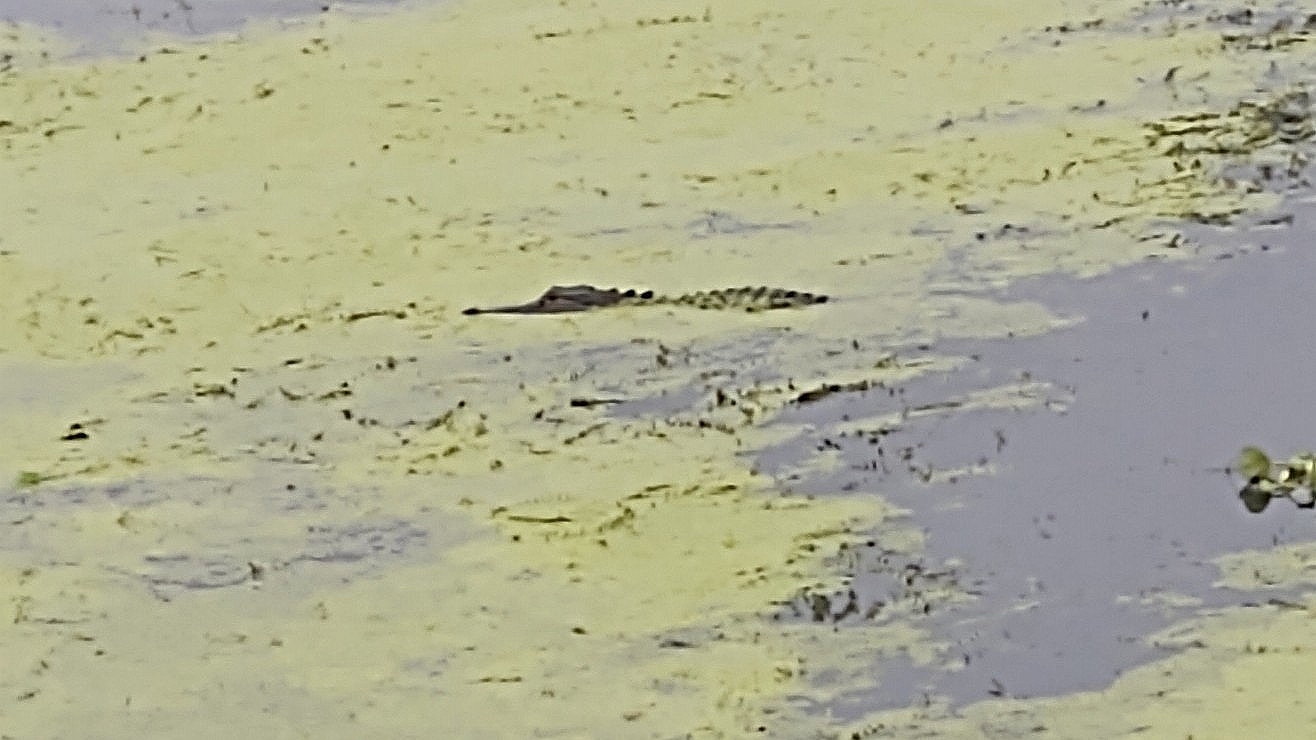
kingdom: Animalia
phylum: Chordata
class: Crocodylia
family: Alligatoridae
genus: Alligator
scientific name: Alligator mississippiensis
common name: American alligator
